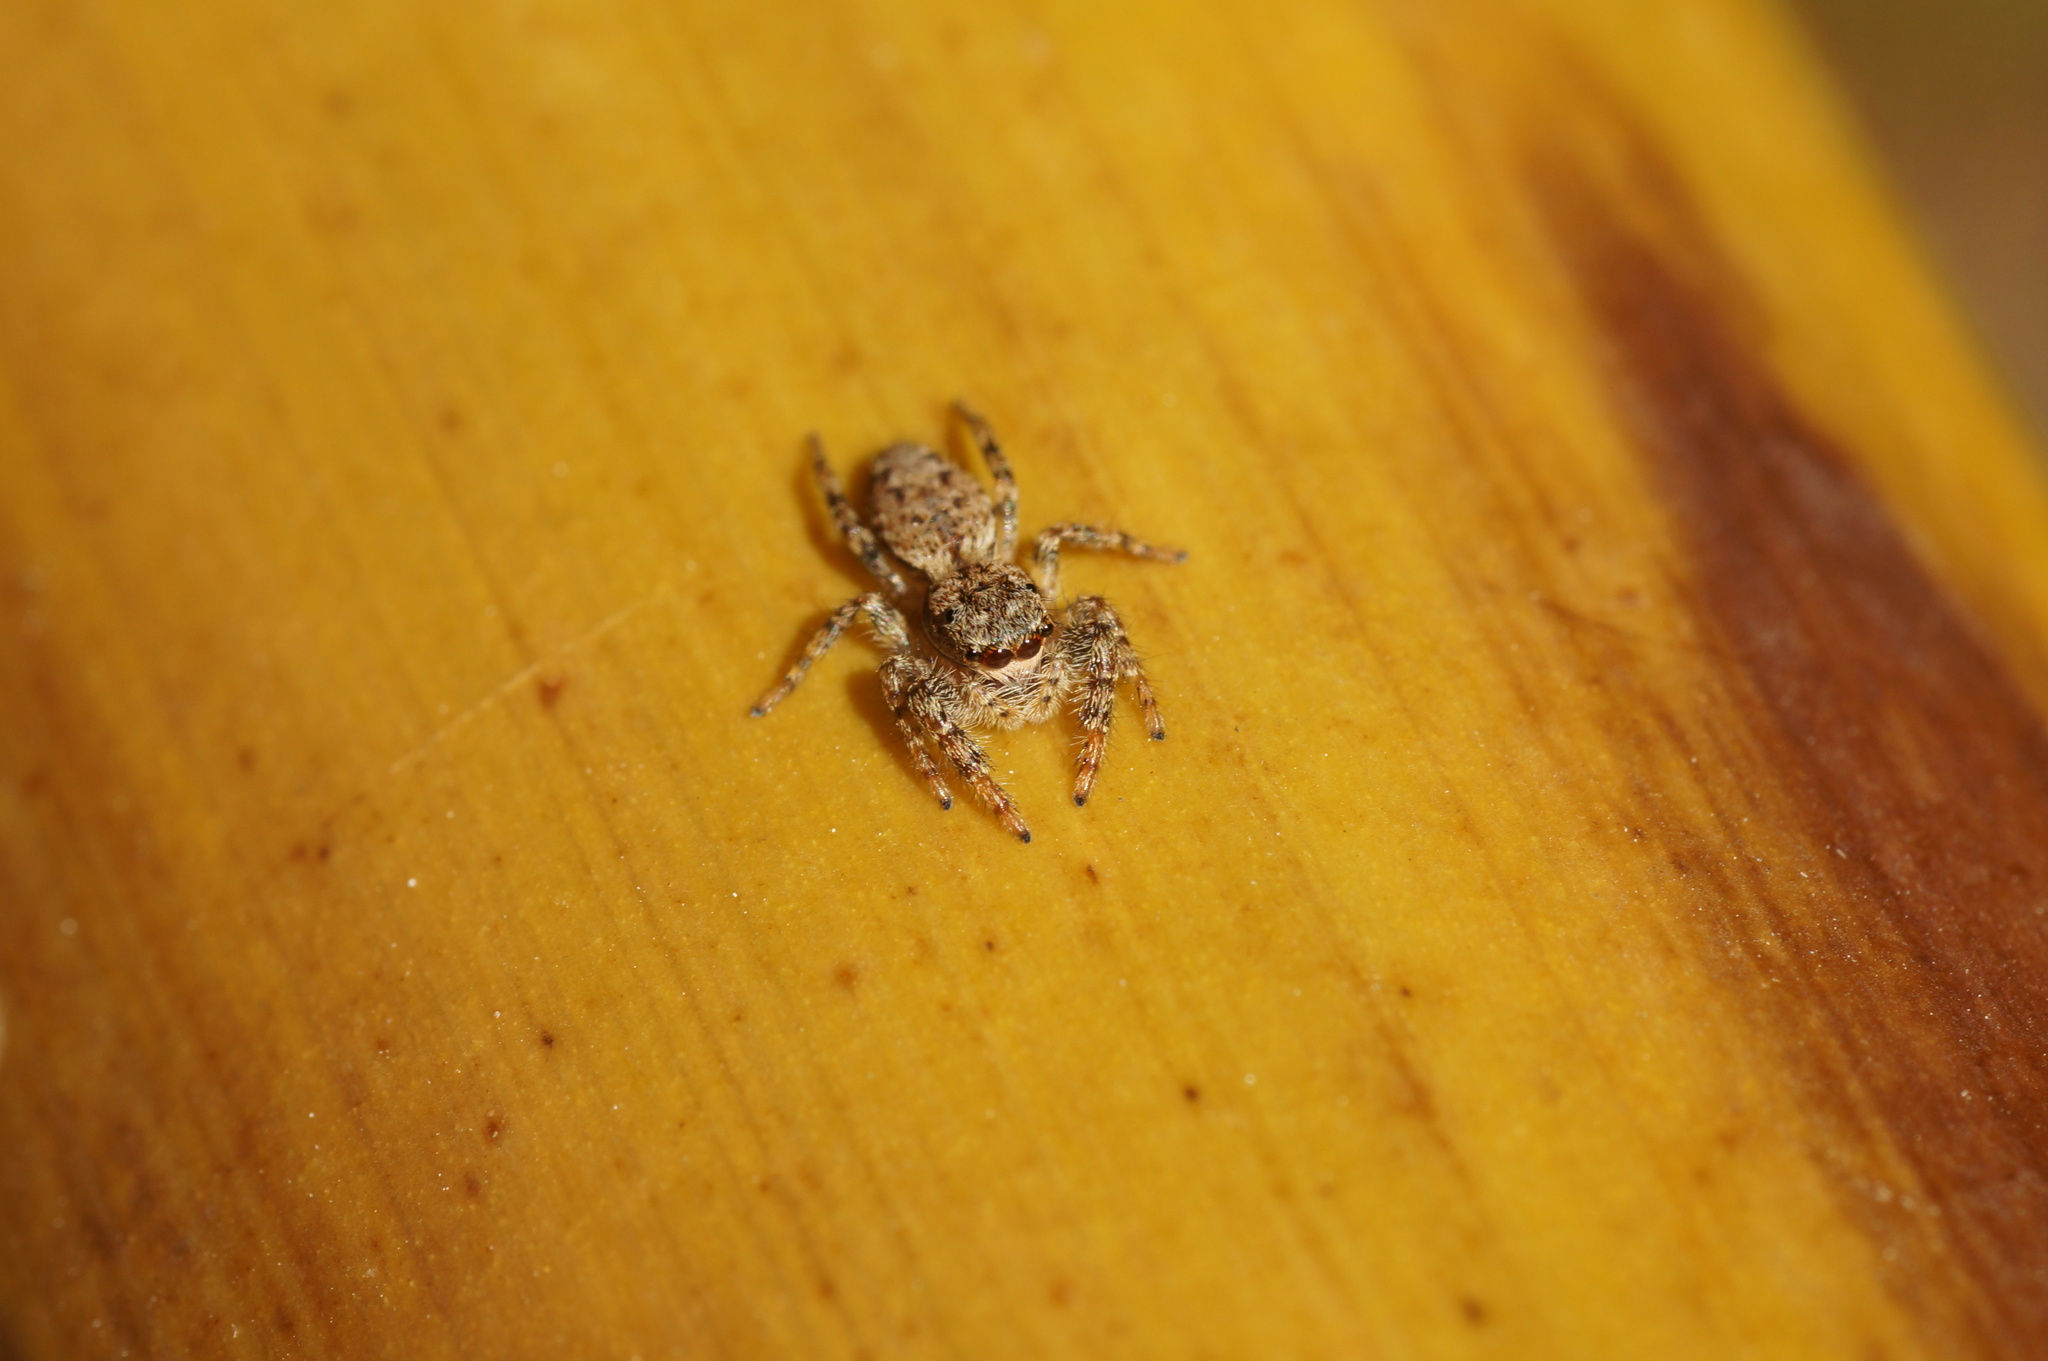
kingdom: Animalia
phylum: Arthropoda
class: Arachnida
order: Araneae
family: Salticidae
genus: Marpissa
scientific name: Marpissa muscosa
